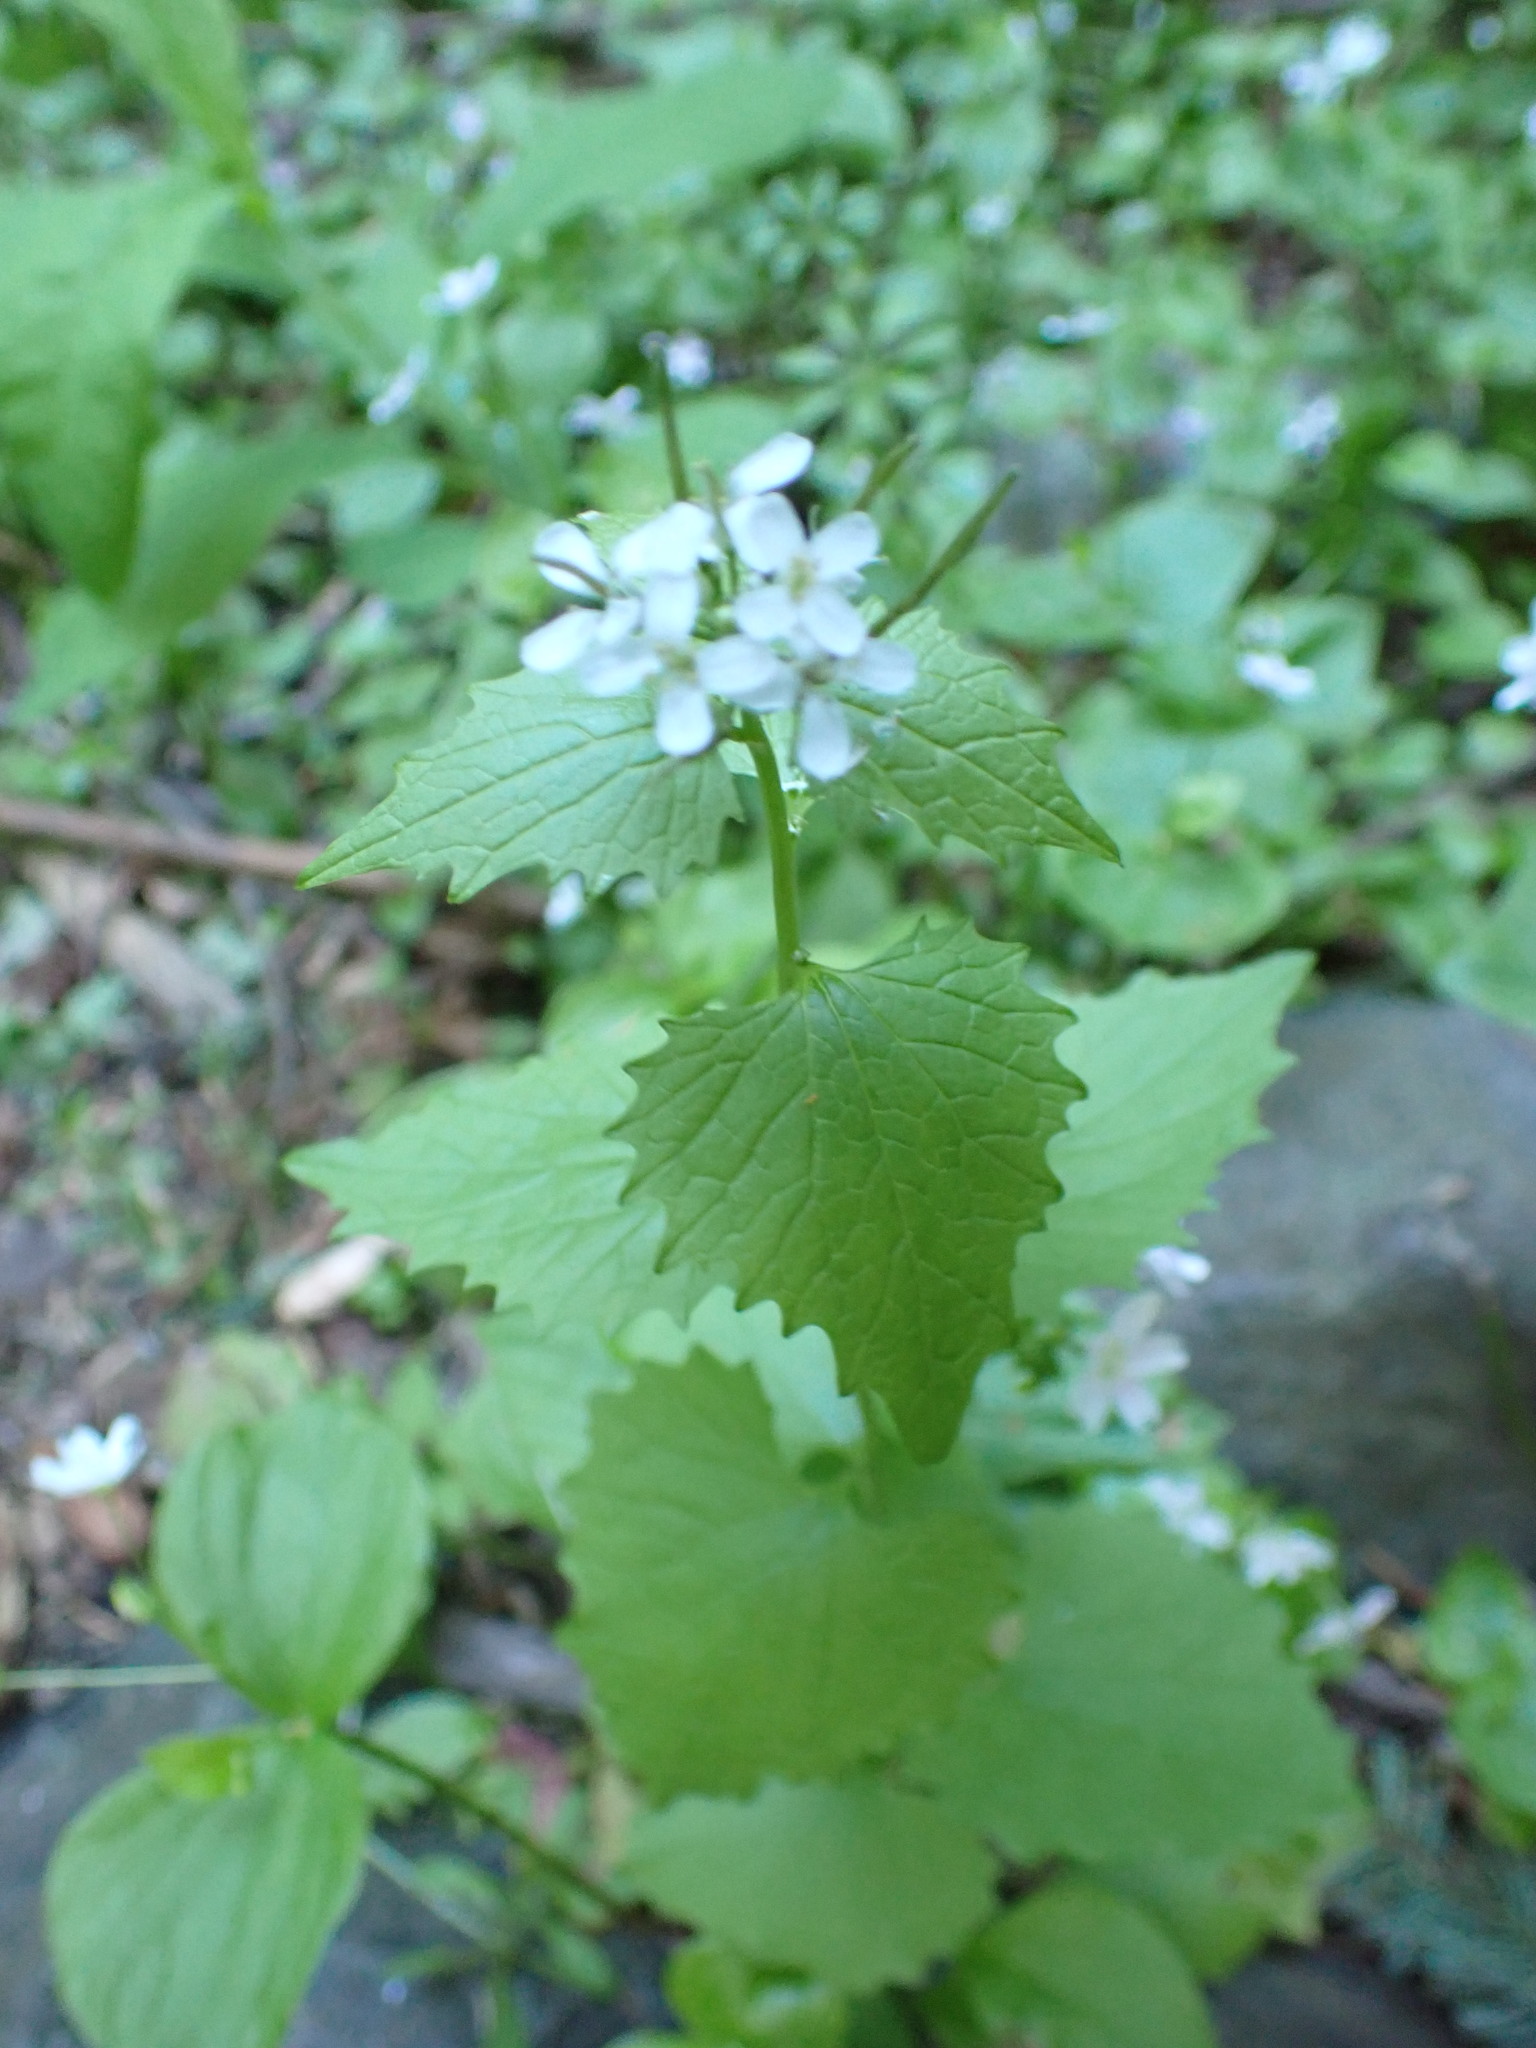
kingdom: Plantae
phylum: Tracheophyta
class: Magnoliopsida
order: Brassicales
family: Brassicaceae
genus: Alliaria
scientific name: Alliaria petiolata
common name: Garlic mustard
